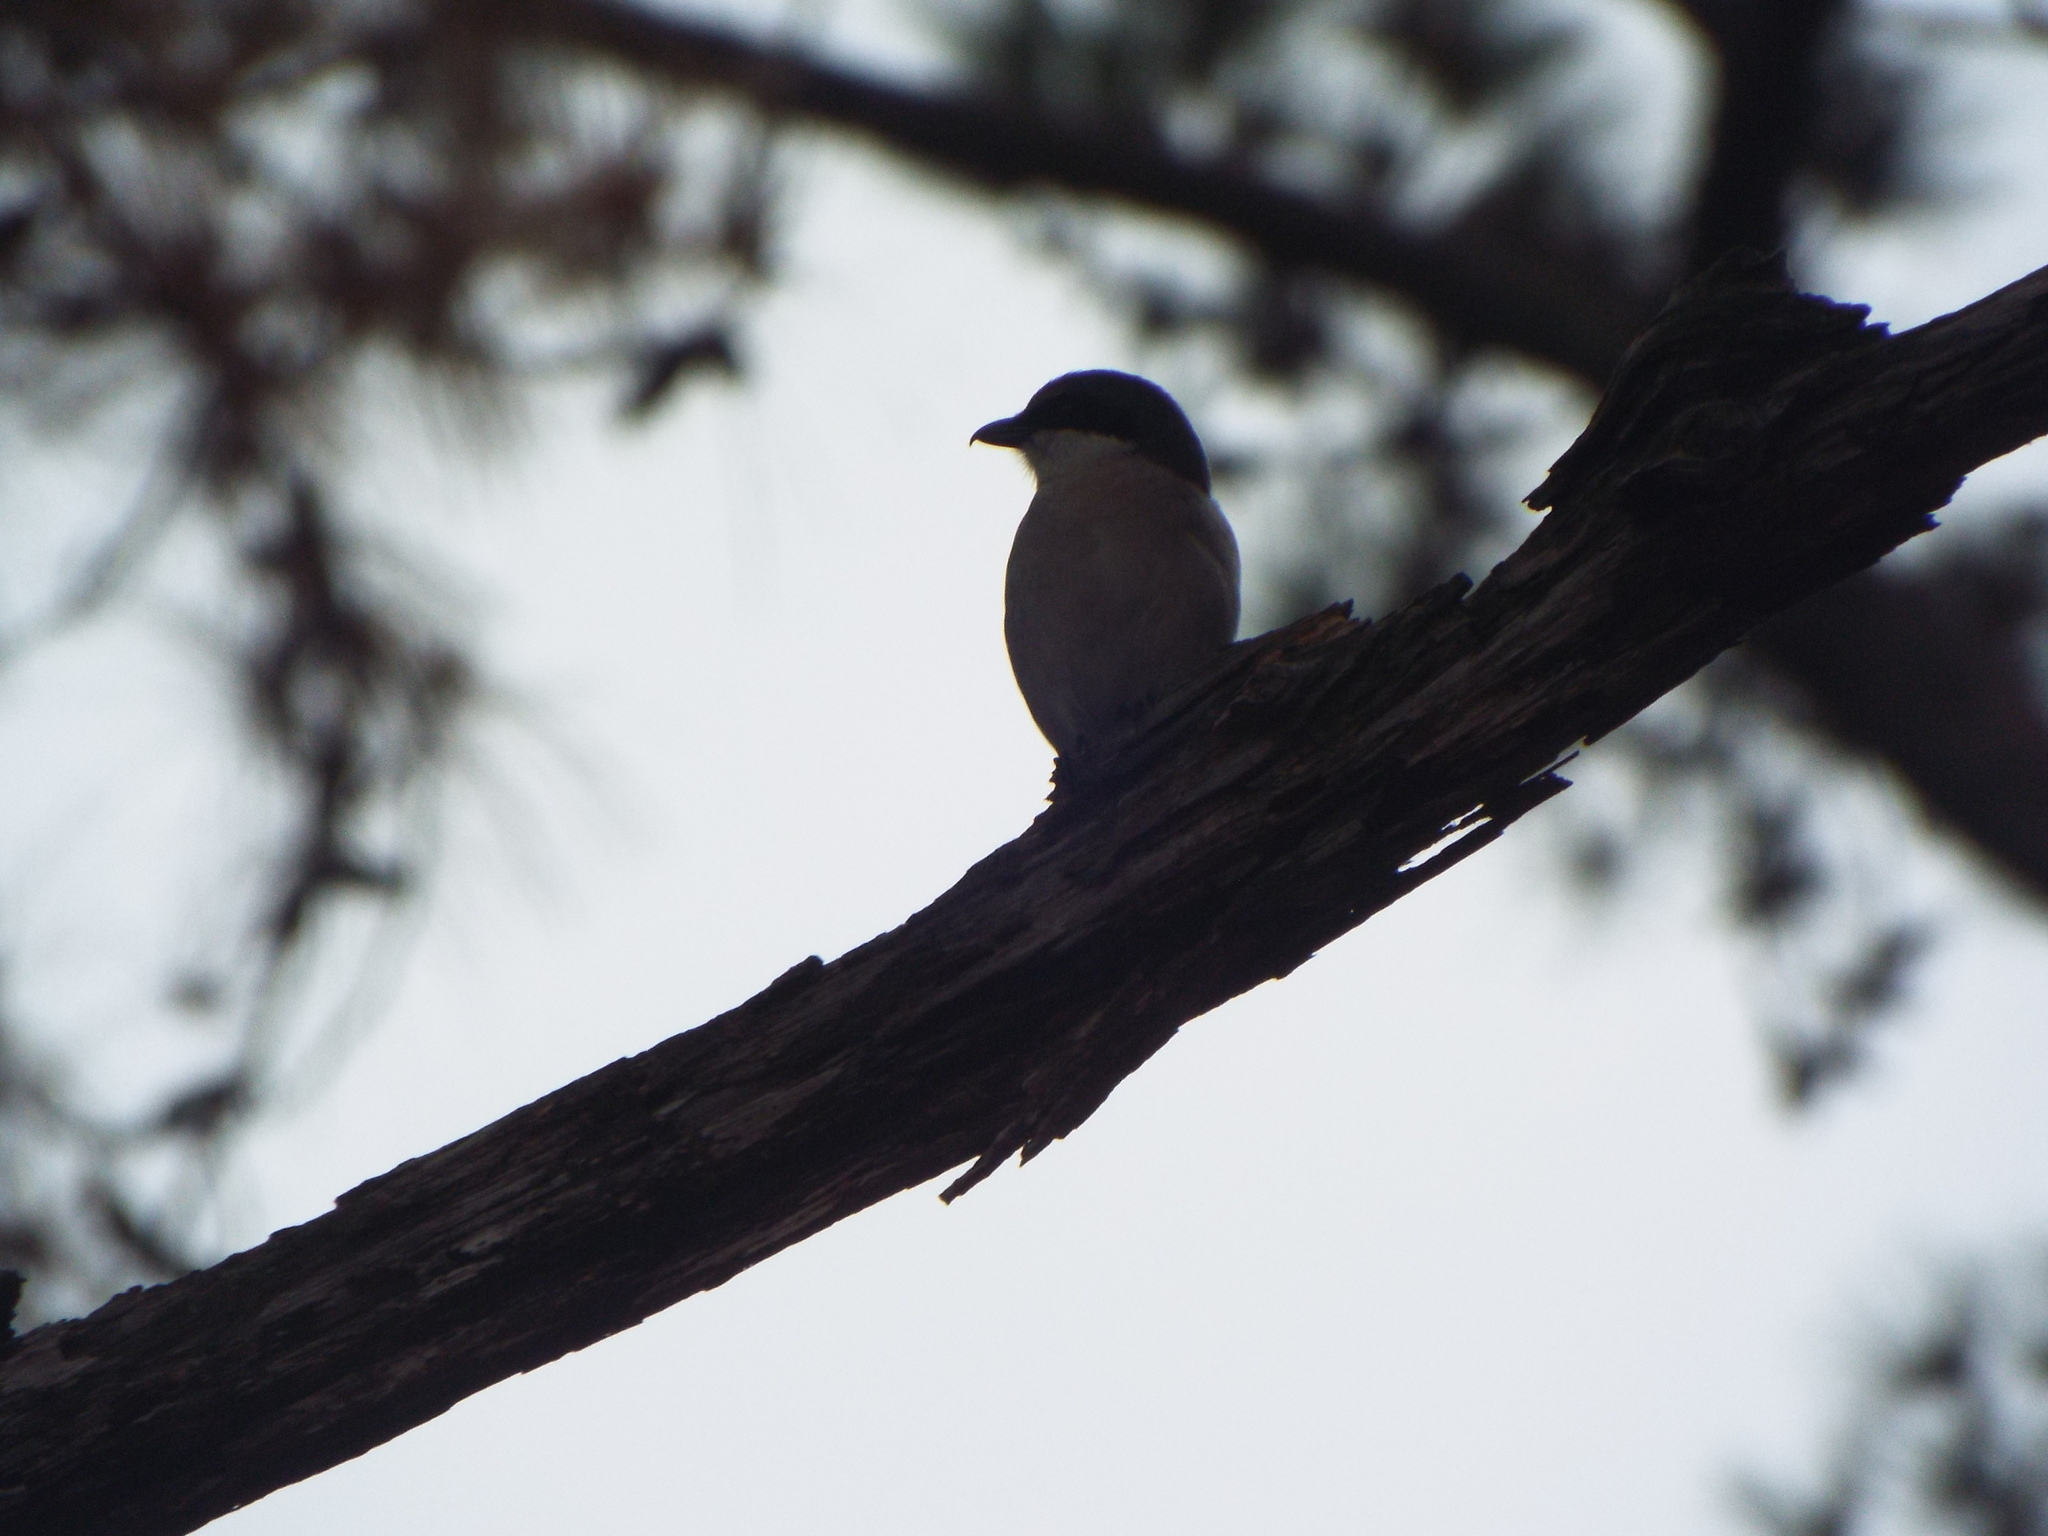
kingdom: Animalia
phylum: Chordata
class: Aves
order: Passeriformes
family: Laniidae
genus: Lanius
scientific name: Lanius ludovicianus
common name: Loggerhead shrike
